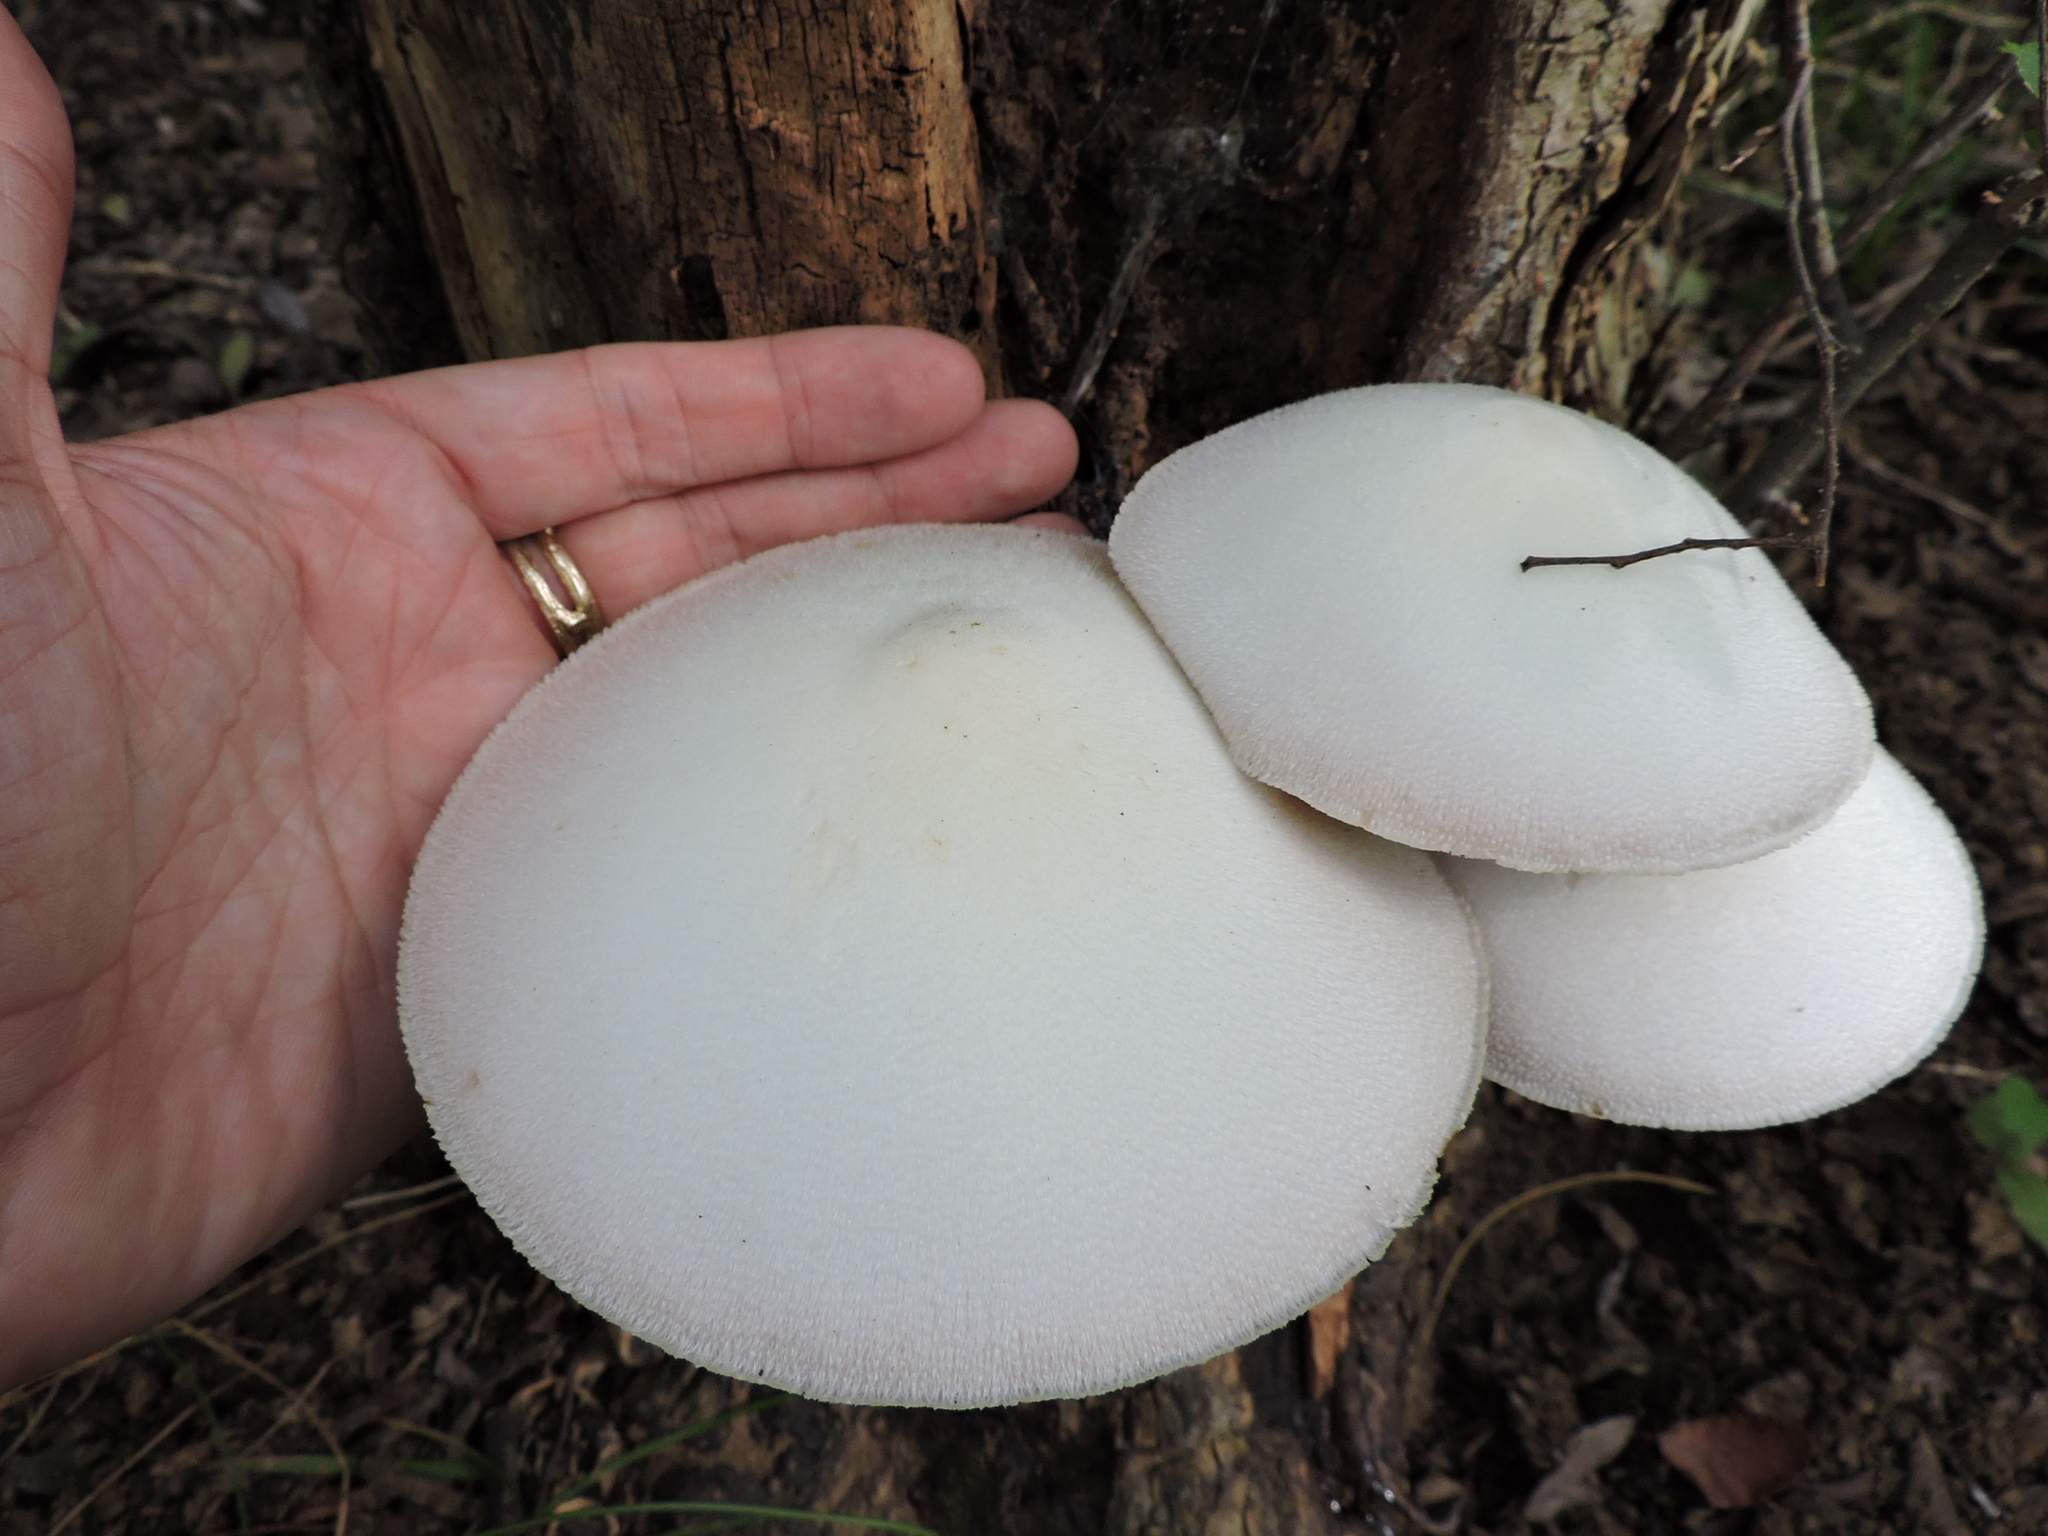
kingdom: Fungi
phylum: Basidiomycota
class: Agaricomycetes
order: Agaricales
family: Pluteaceae
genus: Volvariella
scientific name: Volvariella bombycina
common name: Silky rosegill
